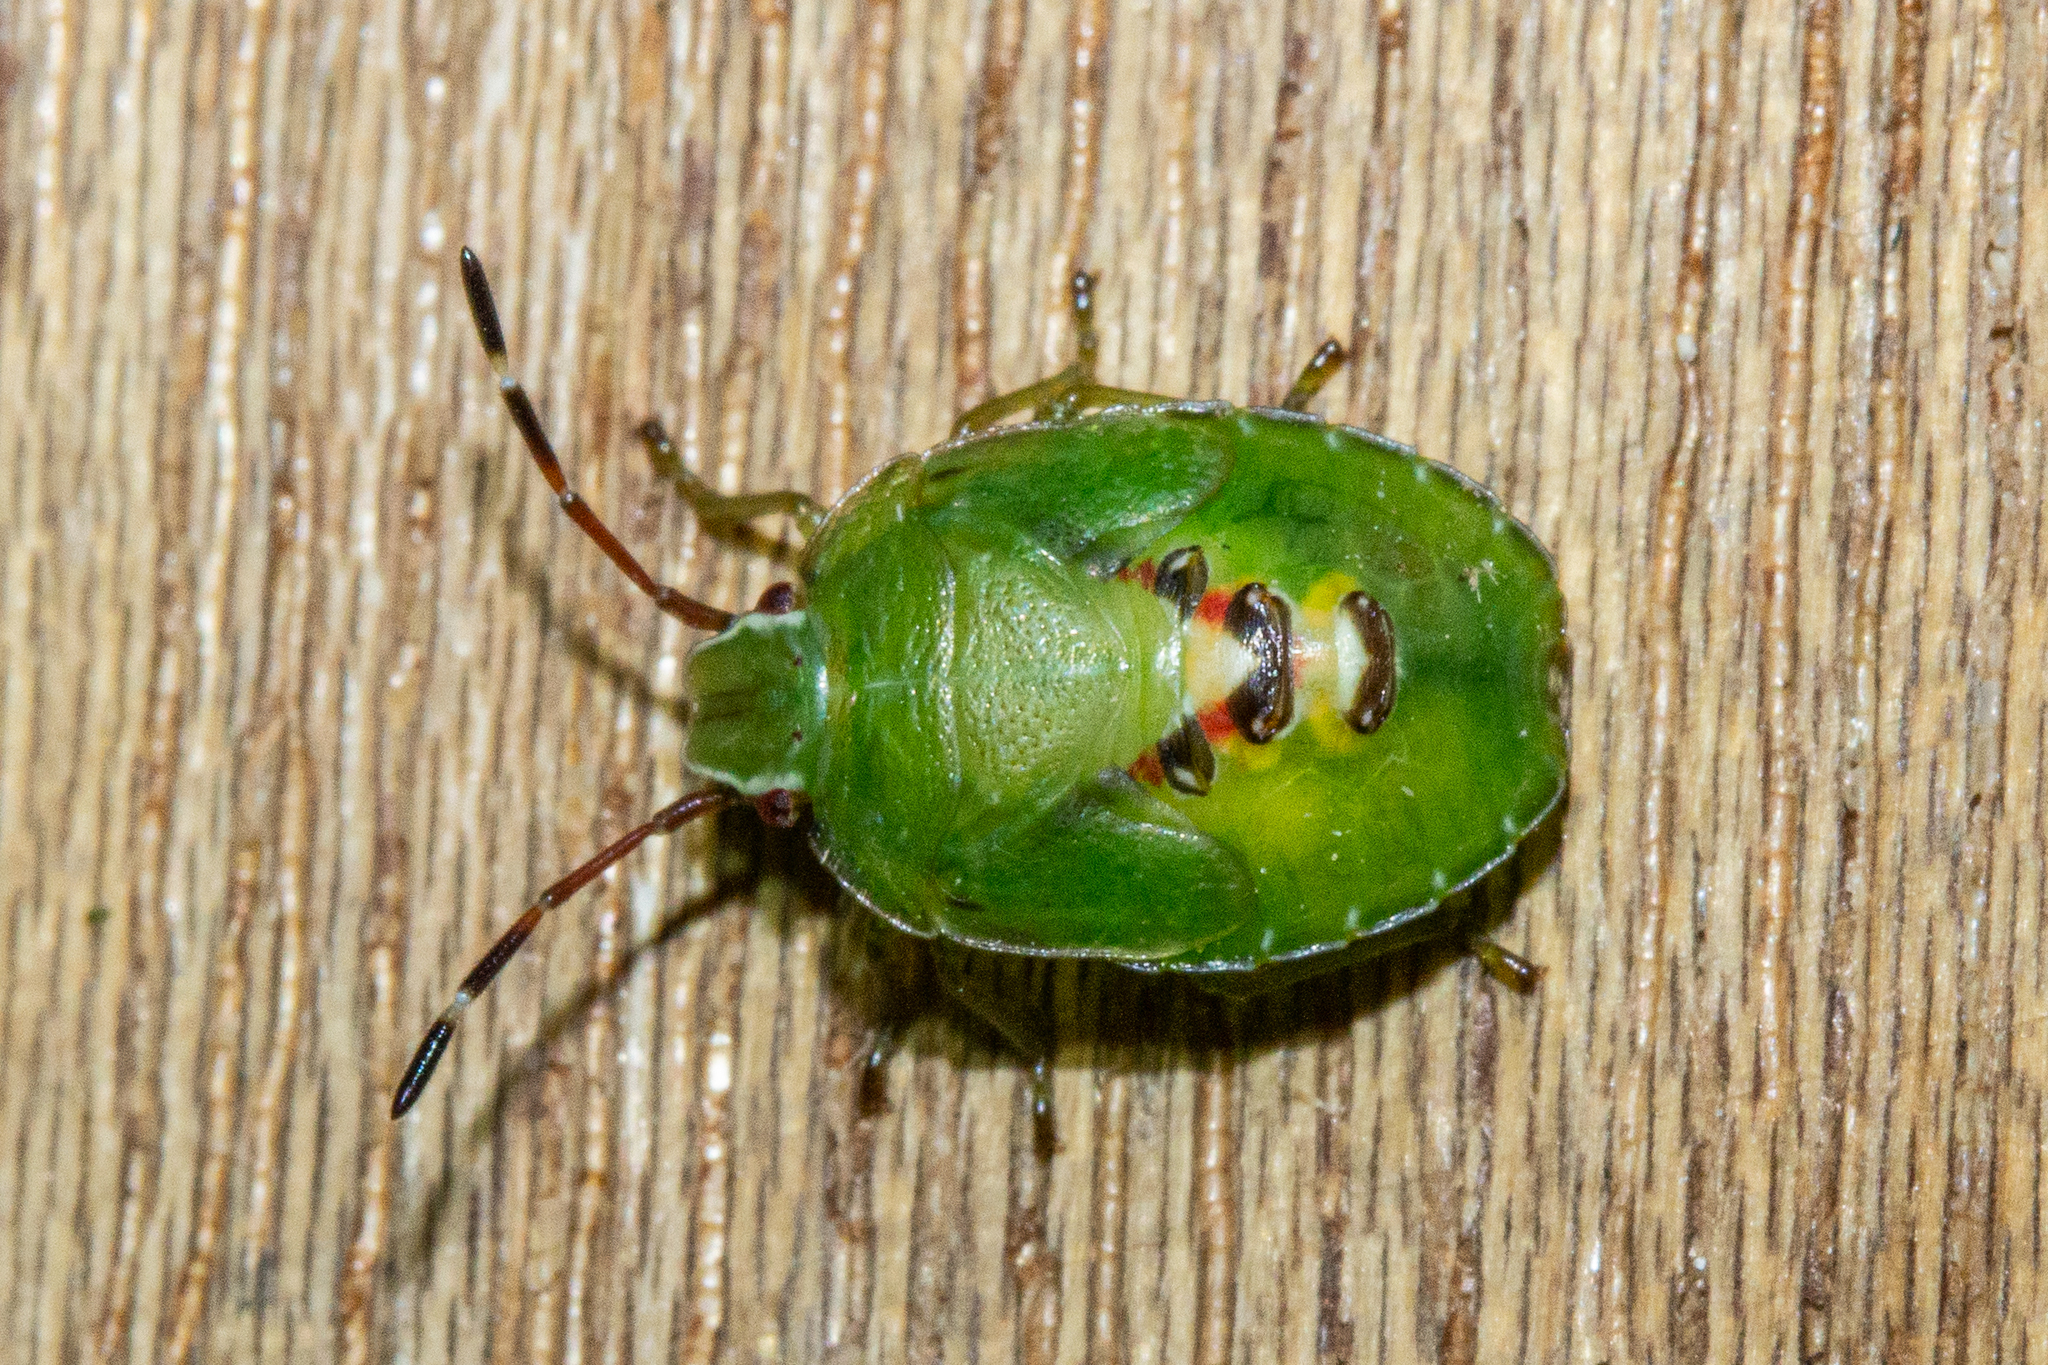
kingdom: Animalia
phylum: Arthropoda
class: Insecta
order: Hemiptera
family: Acanthosomatidae
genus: Oncacontias
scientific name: Oncacontias vittatus
